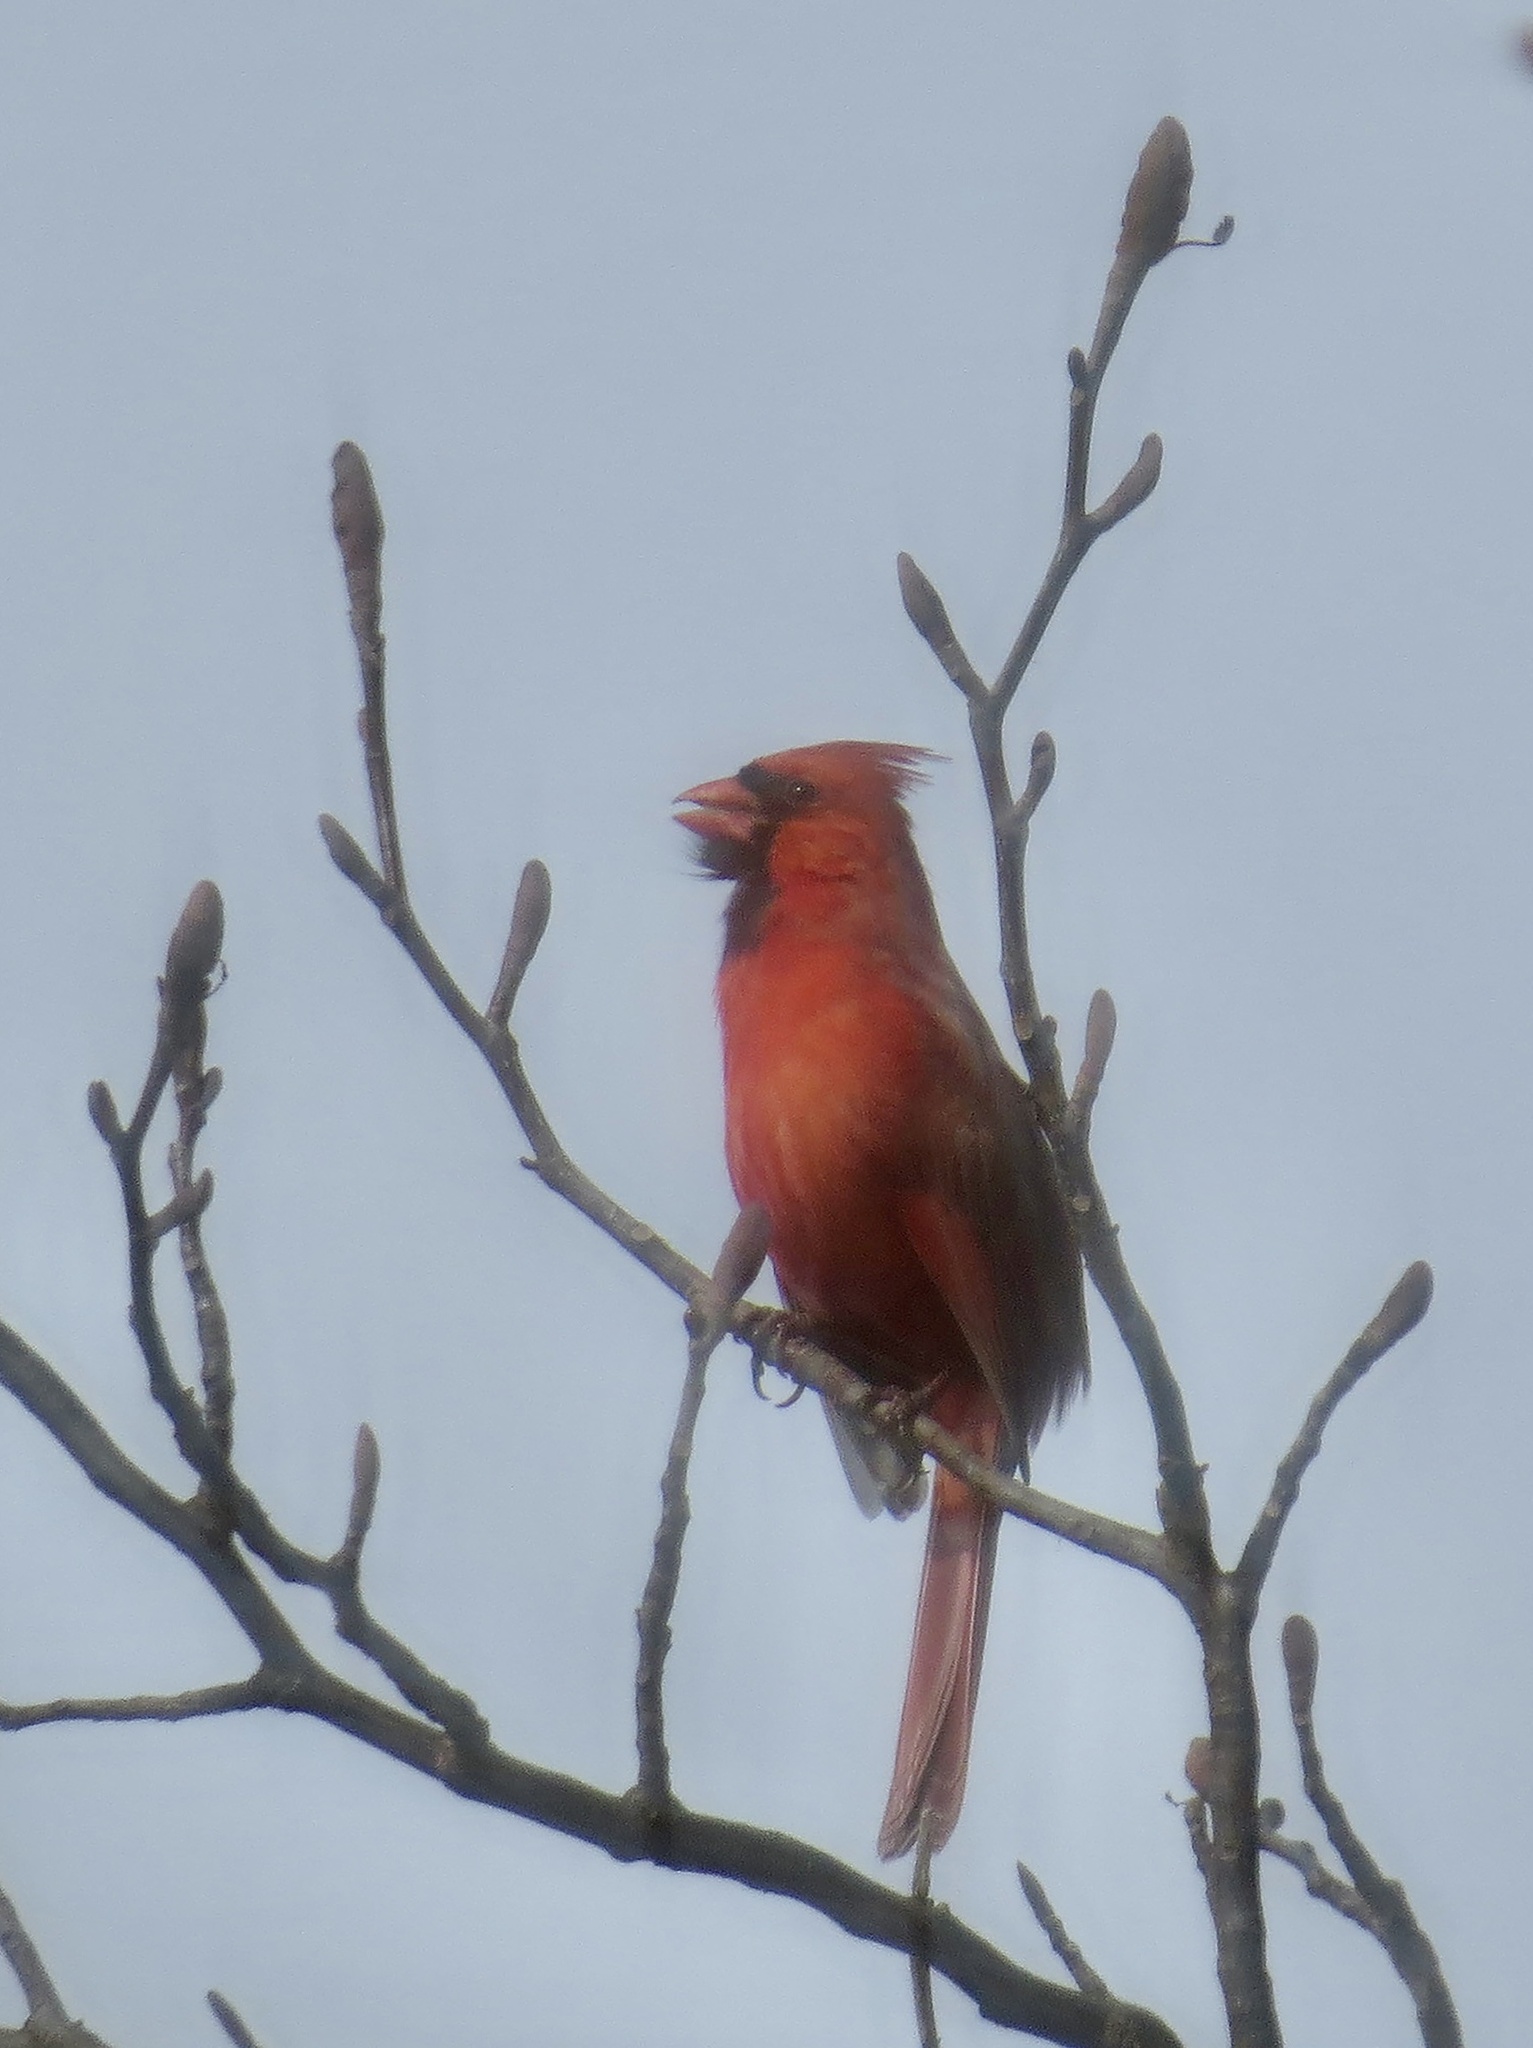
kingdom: Animalia
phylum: Chordata
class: Aves
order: Passeriformes
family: Cardinalidae
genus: Cardinalis
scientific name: Cardinalis cardinalis
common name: Northern cardinal
